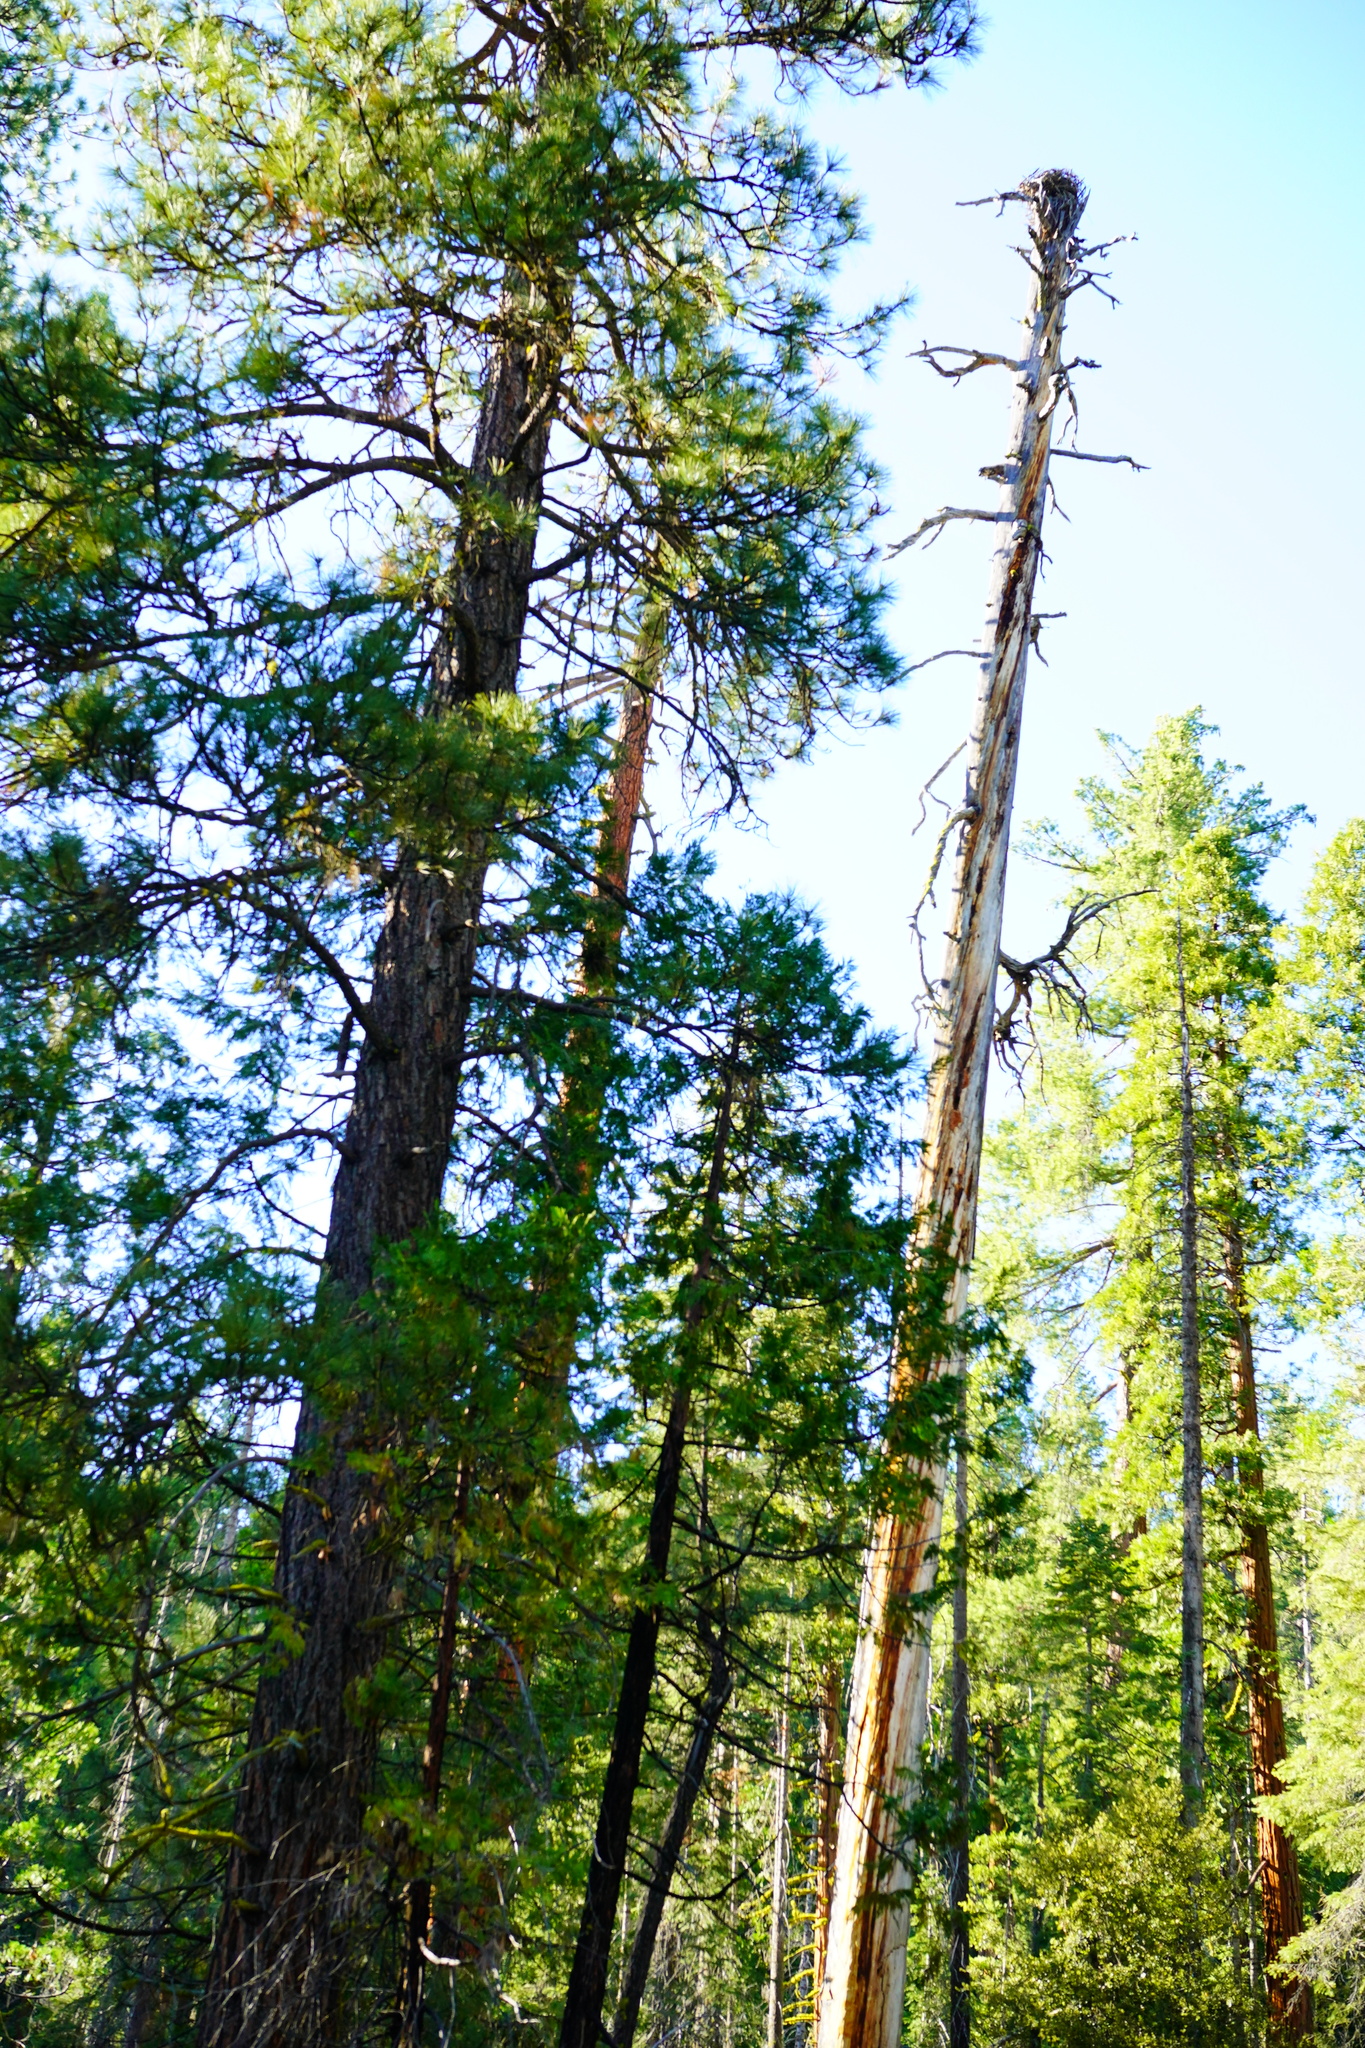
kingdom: Animalia
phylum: Chordata
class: Aves
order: Accipitriformes
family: Pandionidae
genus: Pandion
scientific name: Pandion haliaetus
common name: Osprey
